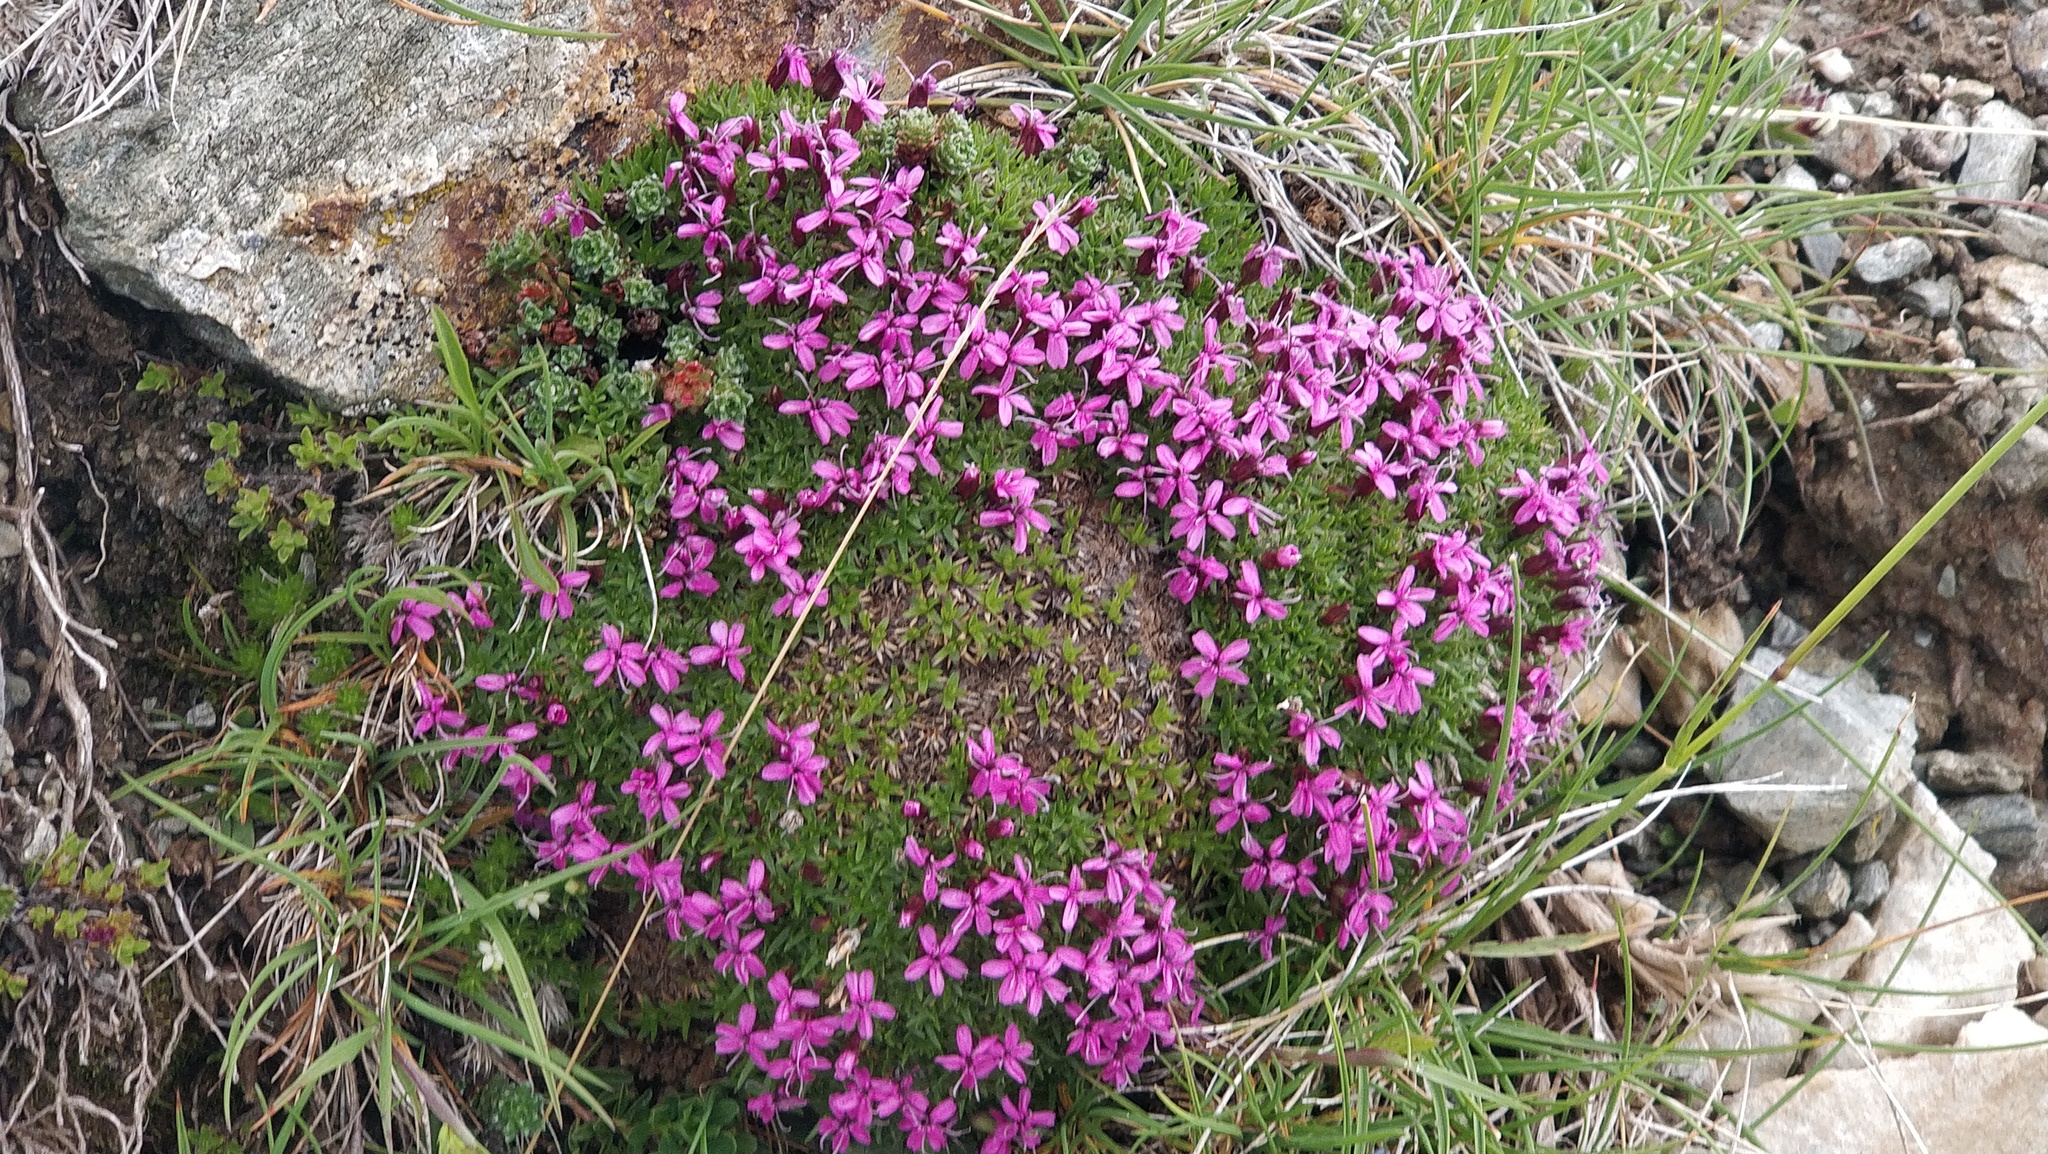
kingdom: Plantae
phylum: Tracheophyta
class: Magnoliopsida
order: Caryophyllales
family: Caryophyllaceae
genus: Silene
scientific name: Silene acaulis
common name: Moss campion
